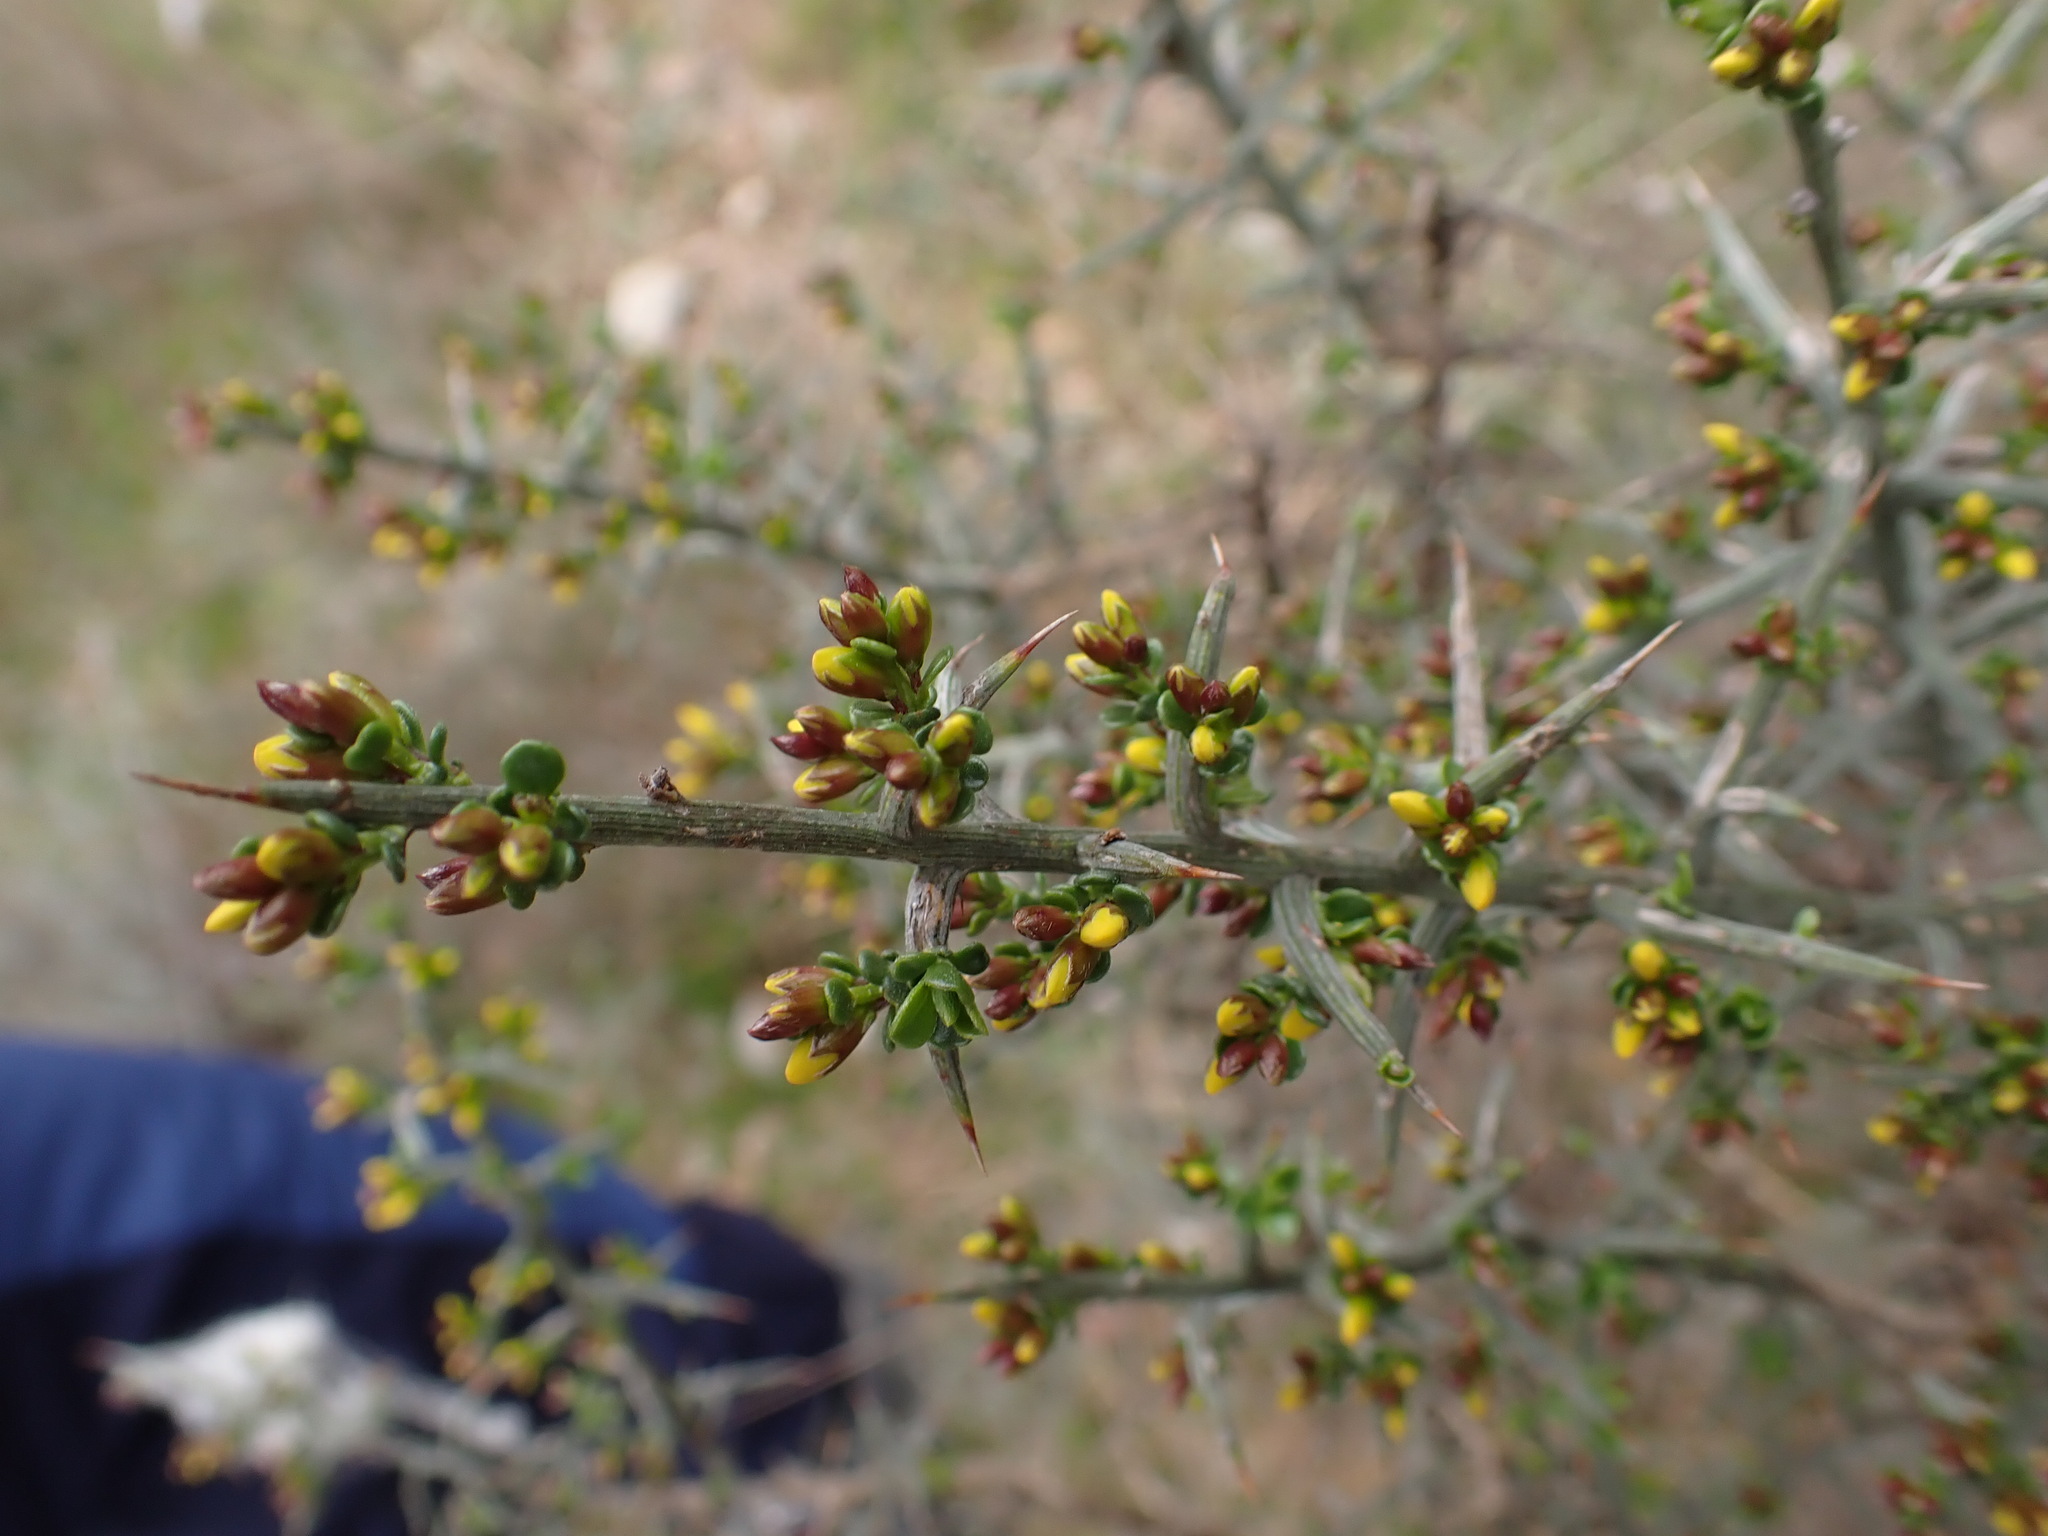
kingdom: Plantae
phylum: Tracheophyta
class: Magnoliopsida
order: Fabales
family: Fabaceae
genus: Genista
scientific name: Genista scorpius
